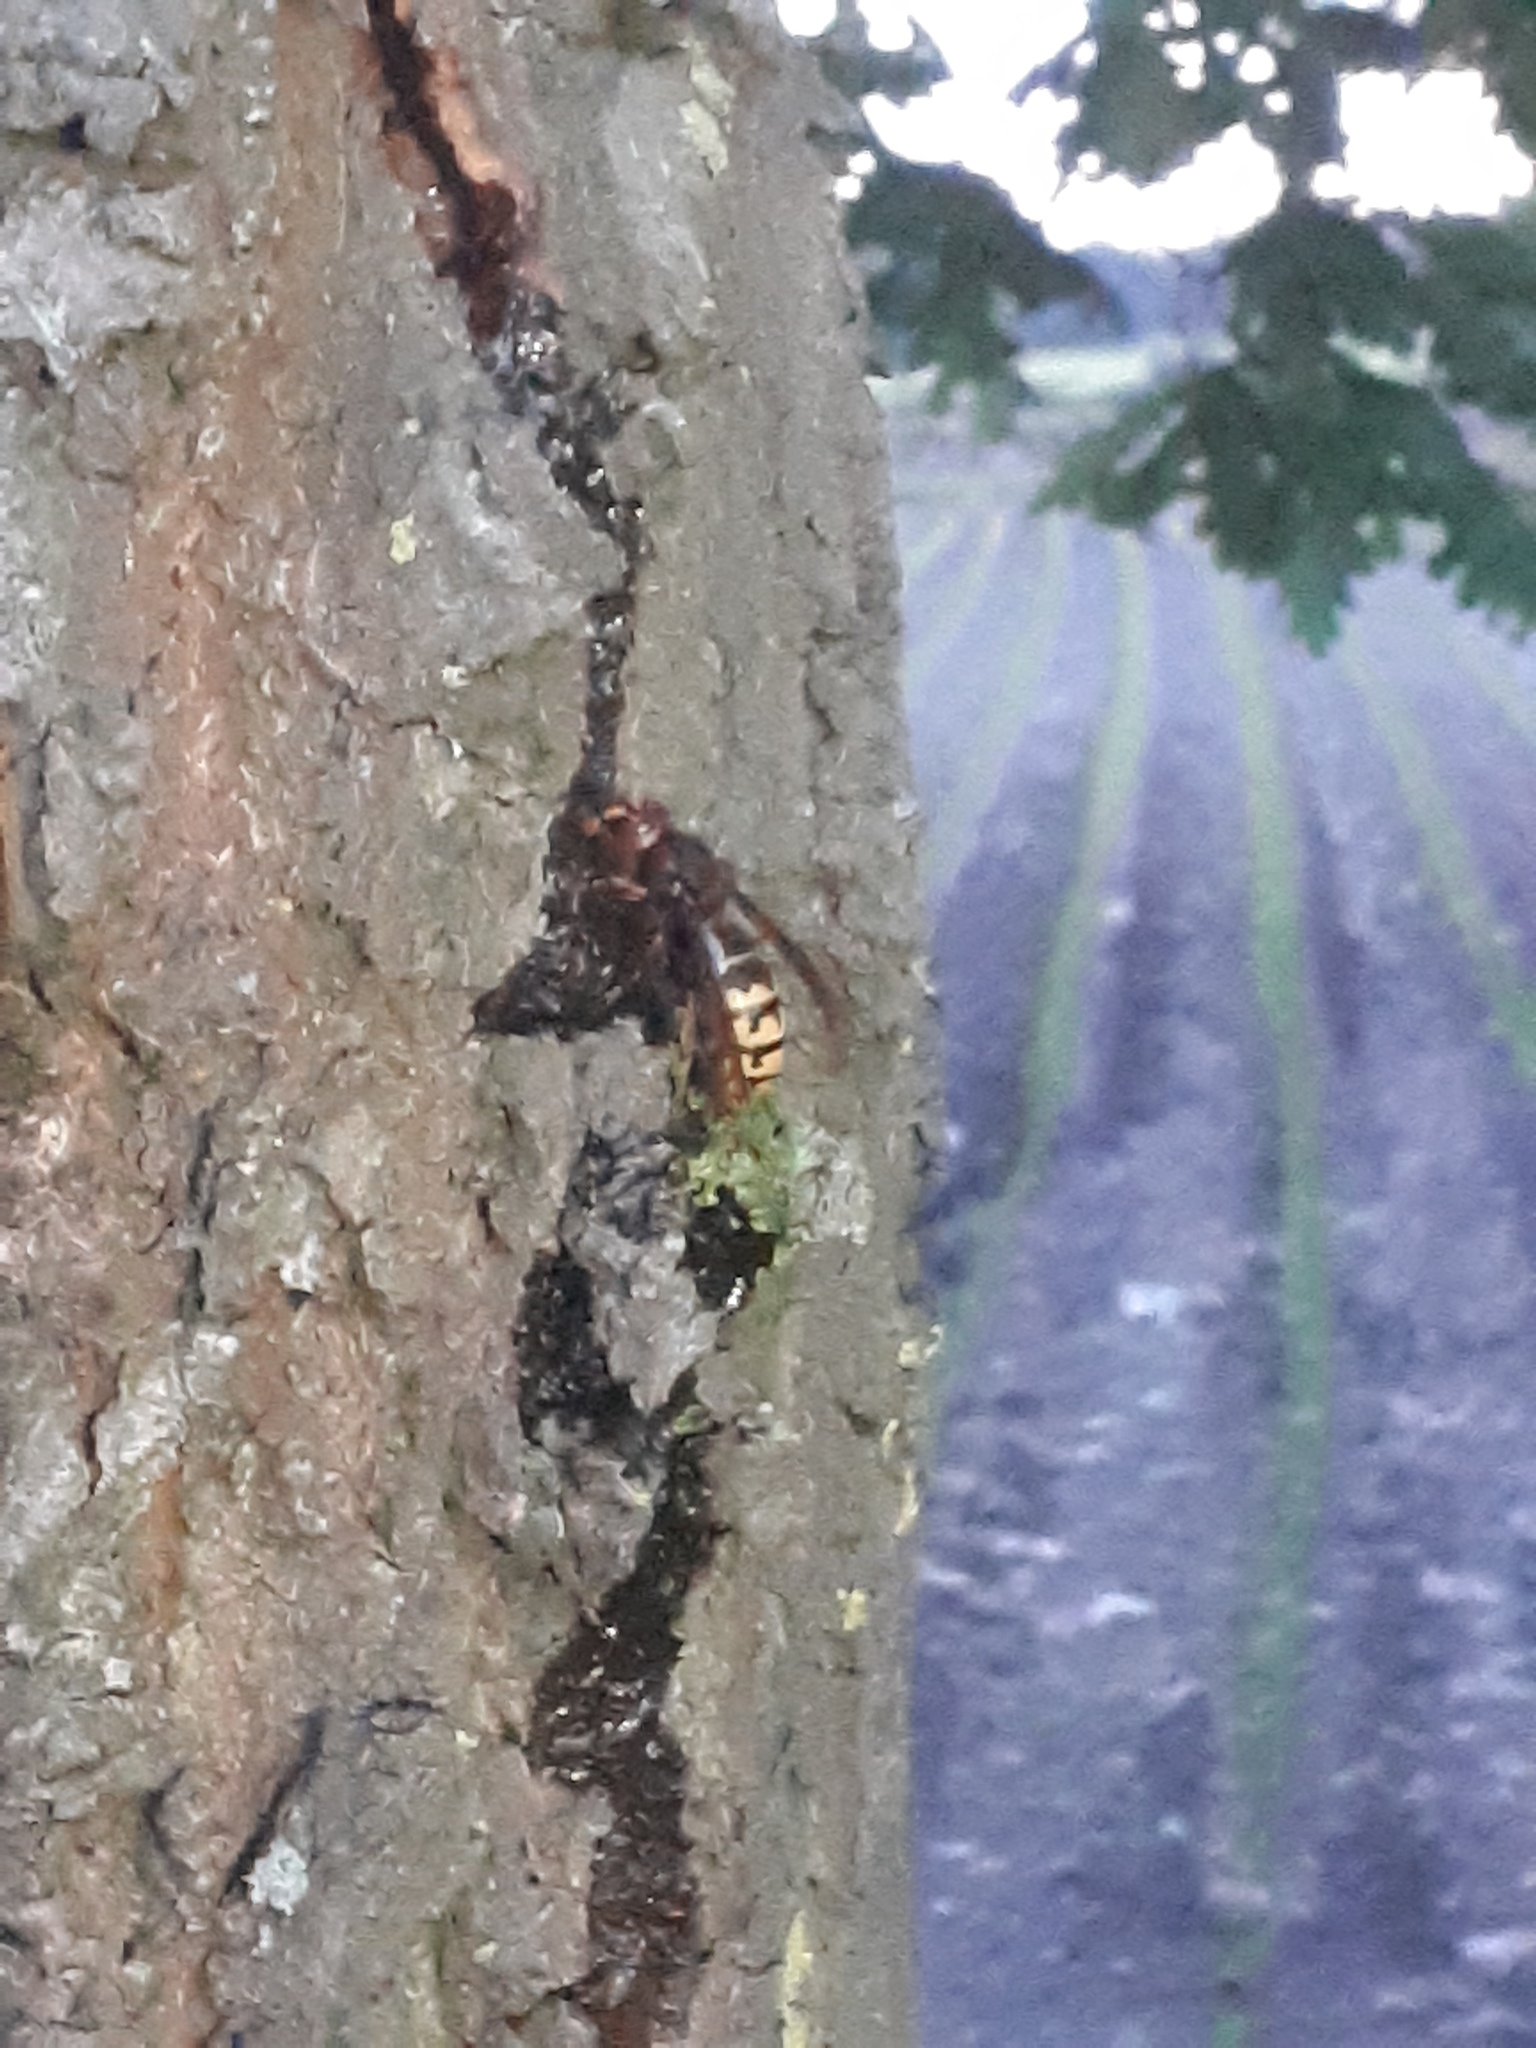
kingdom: Animalia
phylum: Arthropoda
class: Insecta
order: Hymenoptera
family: Vespidae
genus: Vespa
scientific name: Vespa crabro
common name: Hornet
